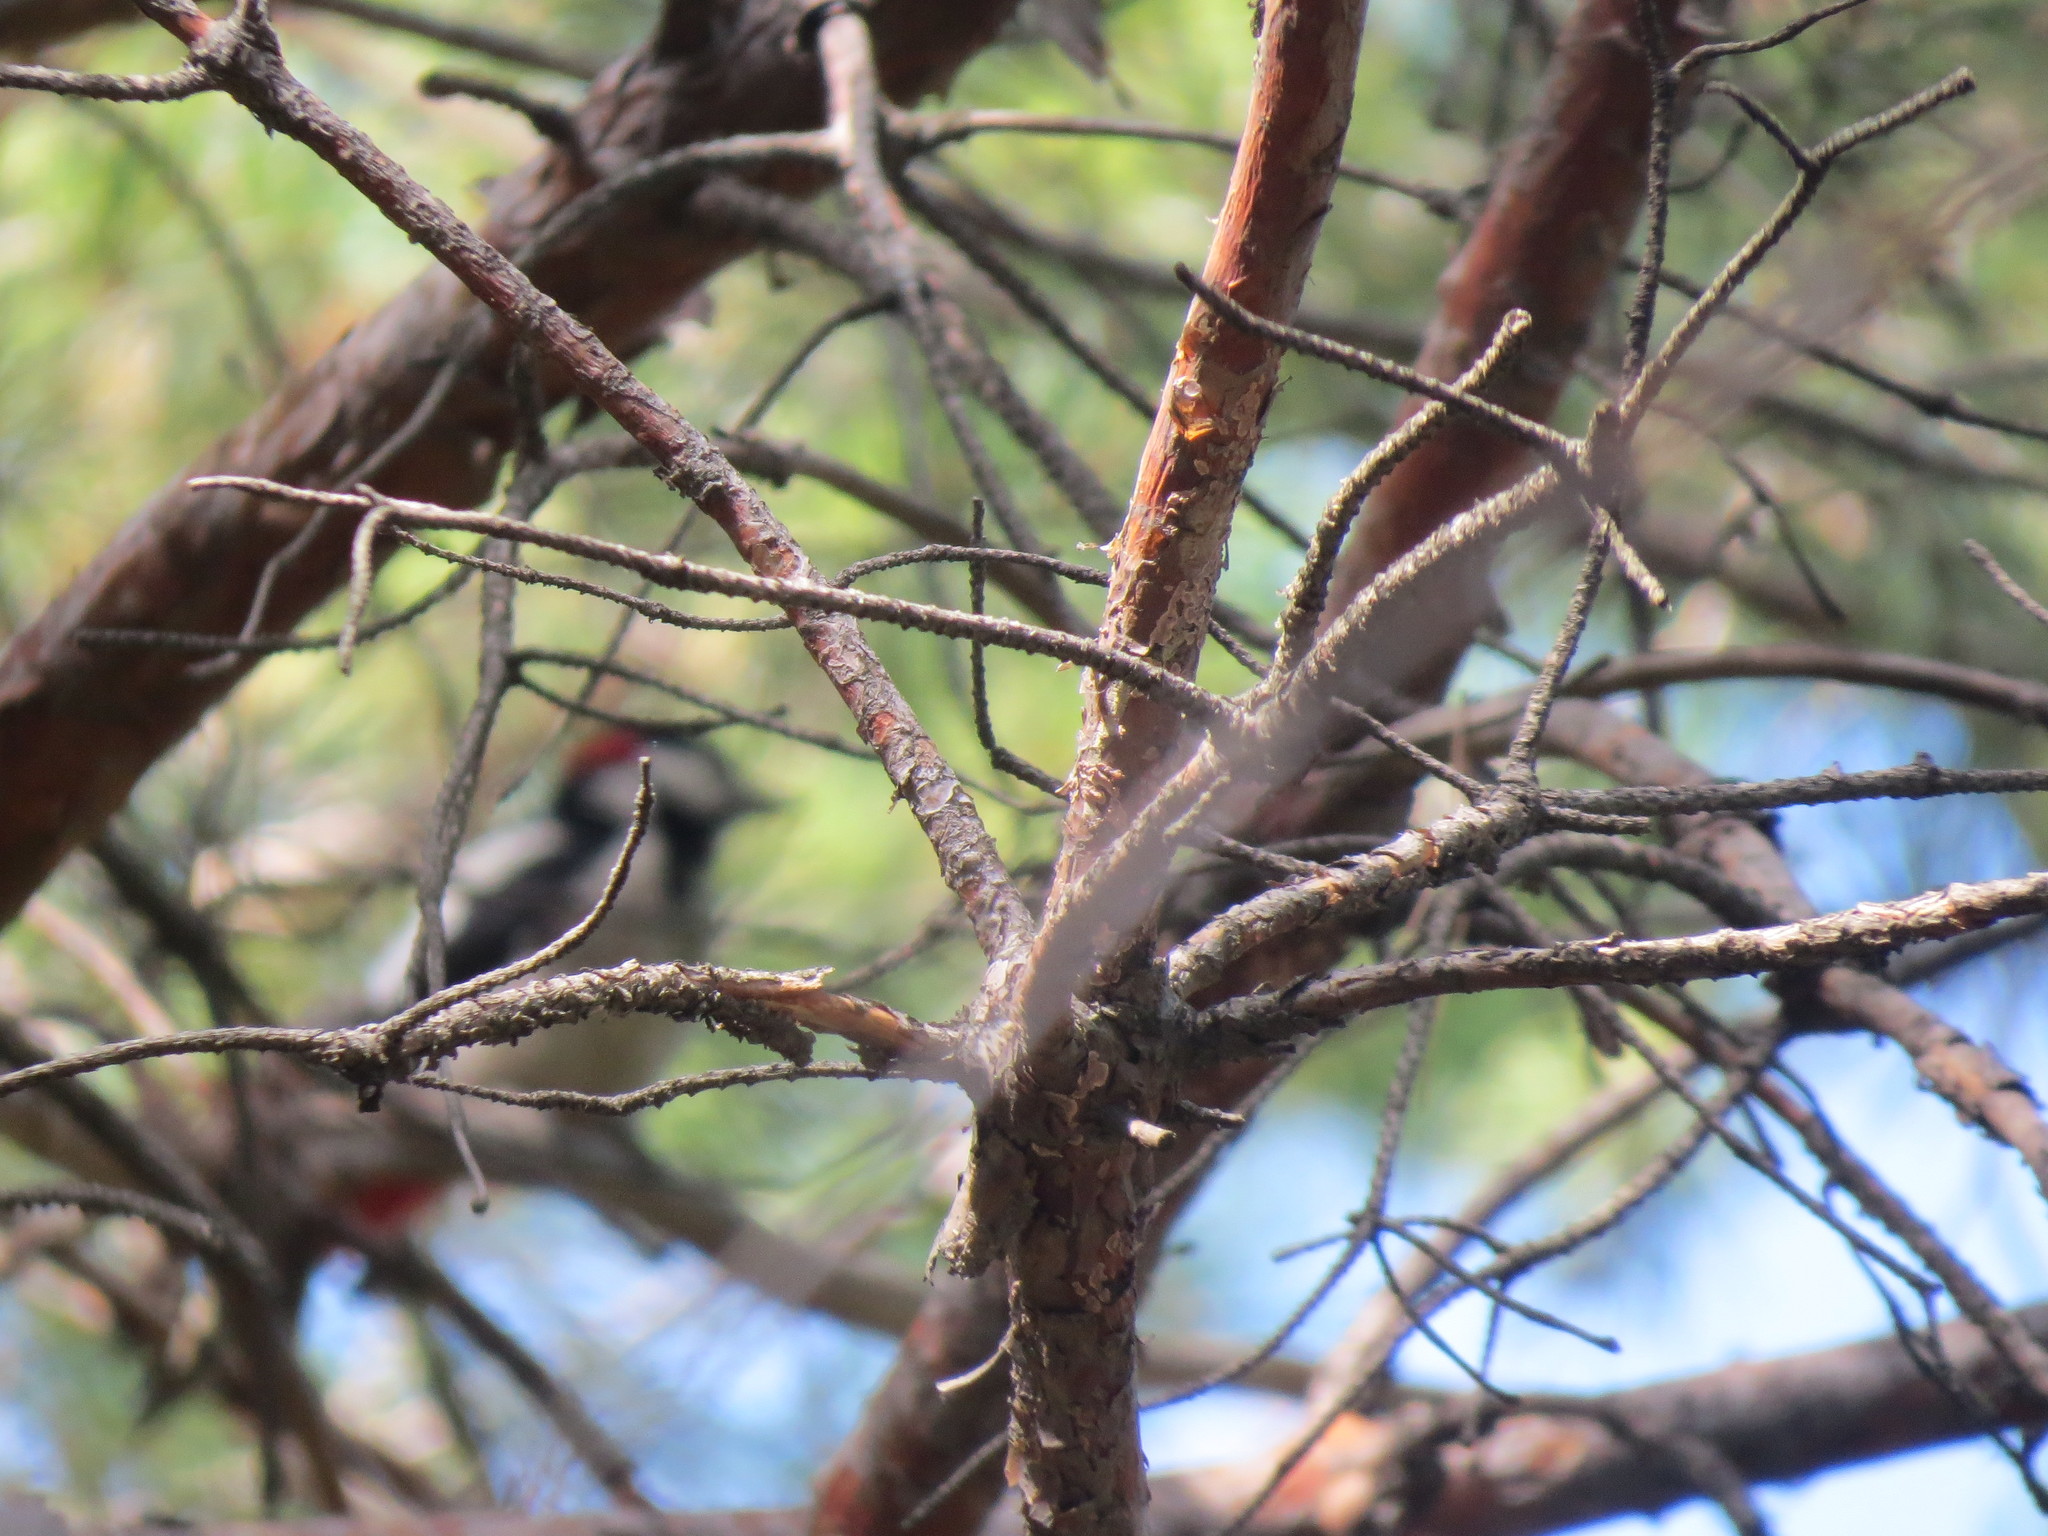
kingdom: Animalia
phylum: Chordata
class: Aves
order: Piciformes
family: Picidae
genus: Dendrocopos
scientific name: Dendrocopos major
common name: Great spotted woodpecker
